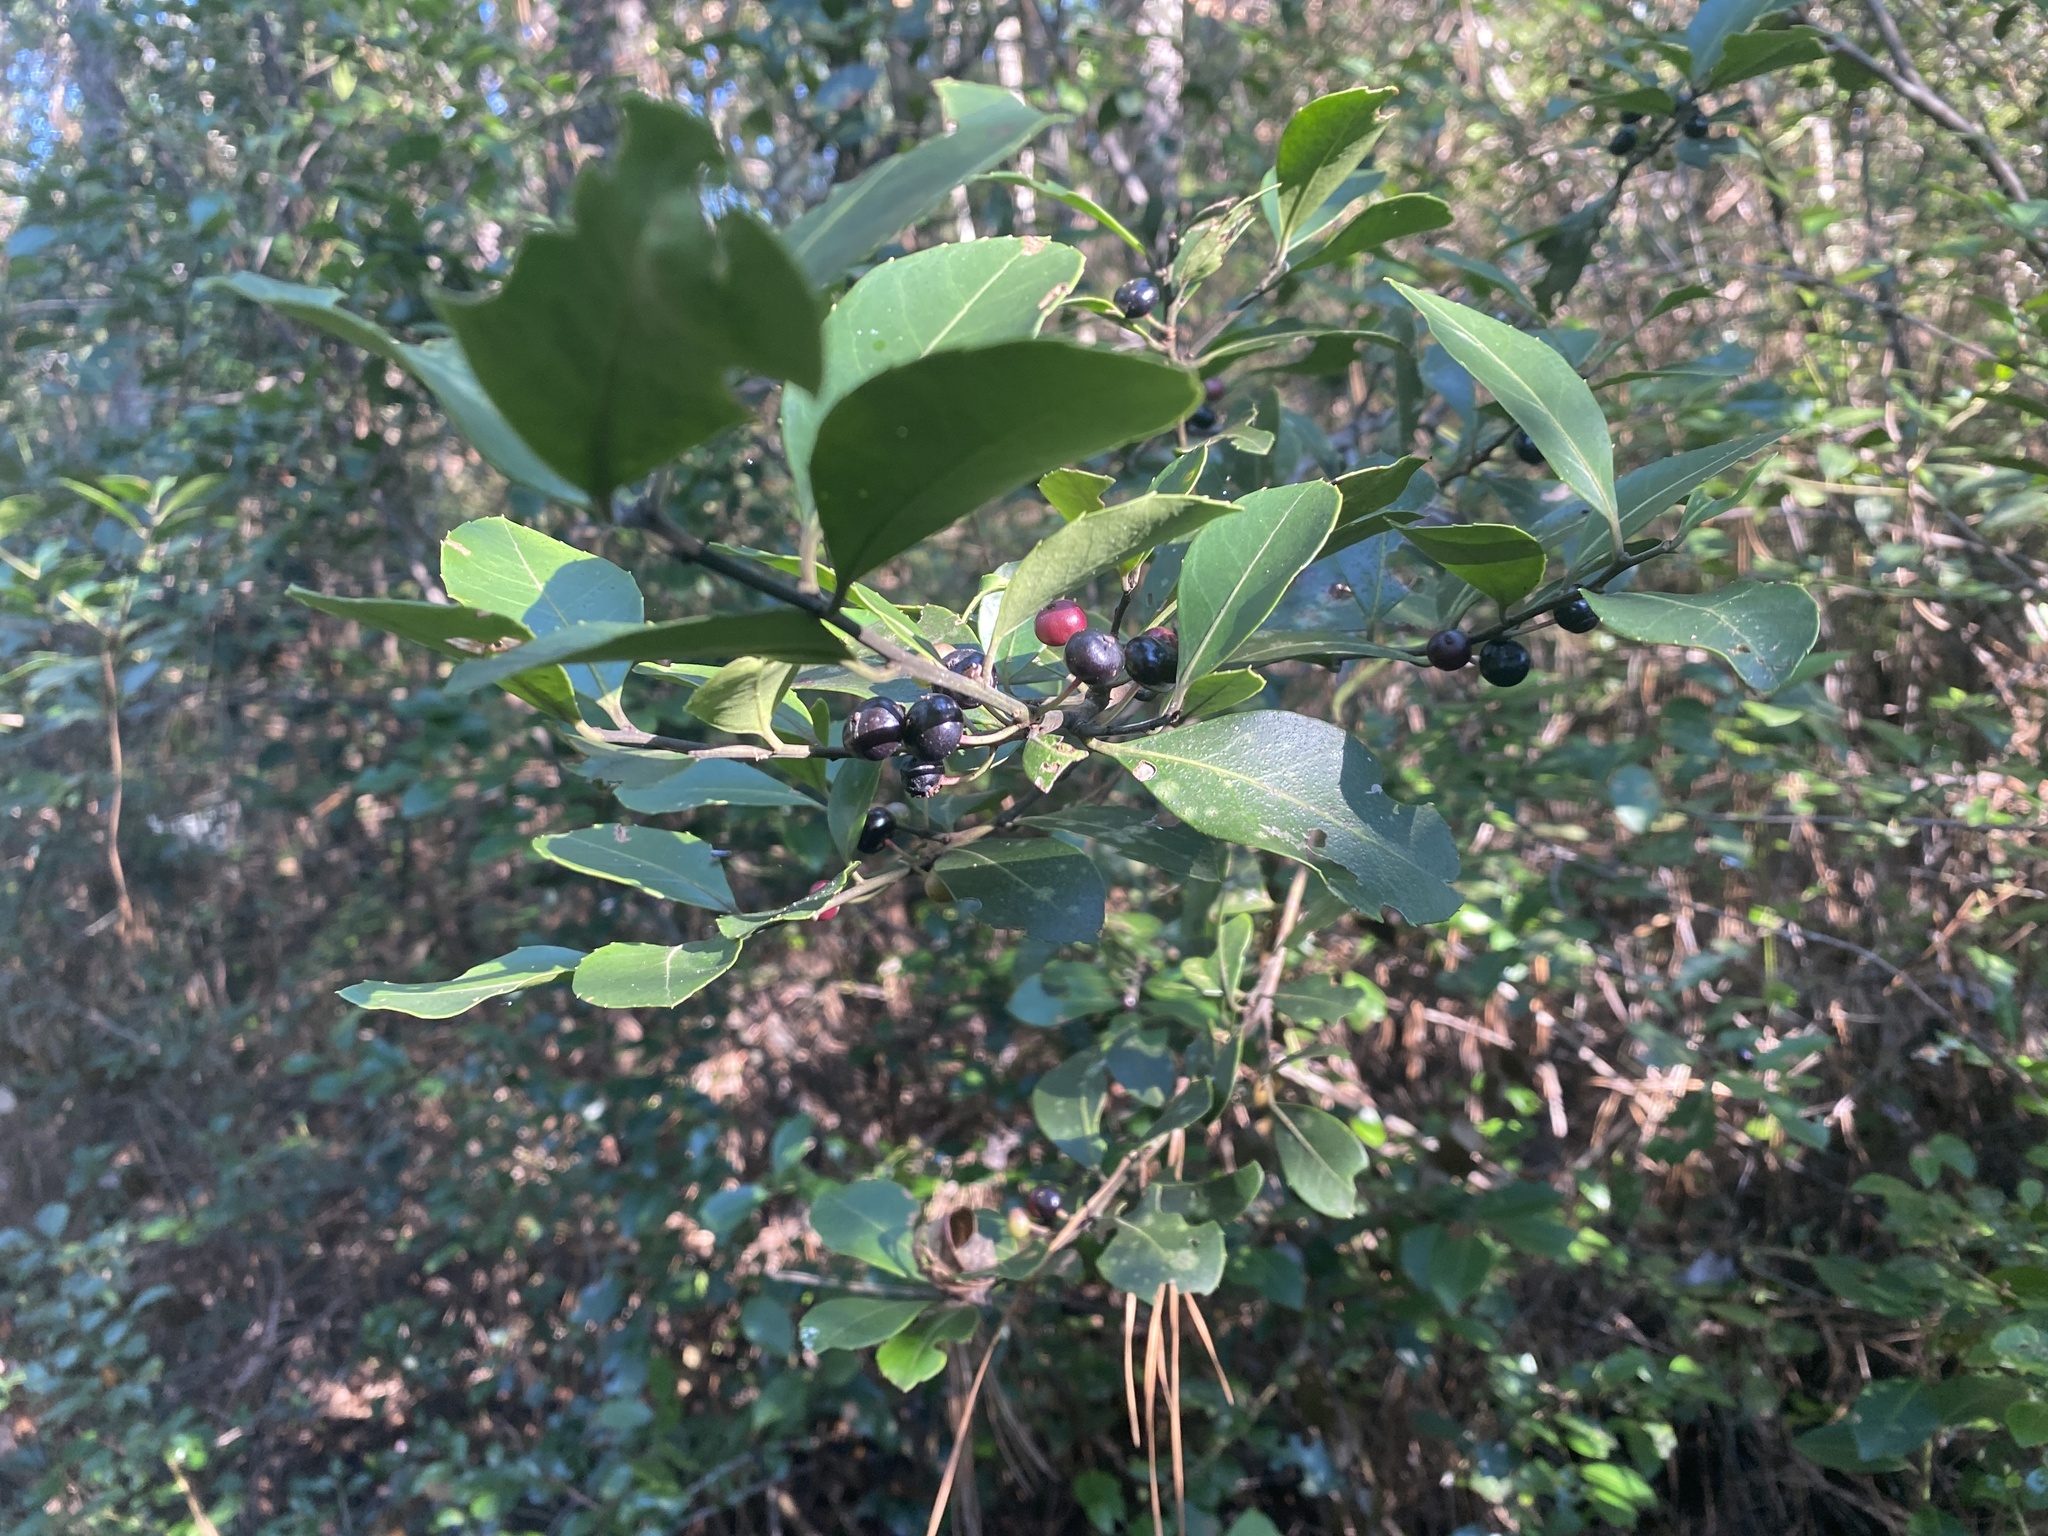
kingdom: Plantae
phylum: Tracheophyta
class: Magnoliopsida
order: Aquifoliales
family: Aquifoliaceae
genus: Ilex
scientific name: Ilex coriacea
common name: Sweet gallberry
